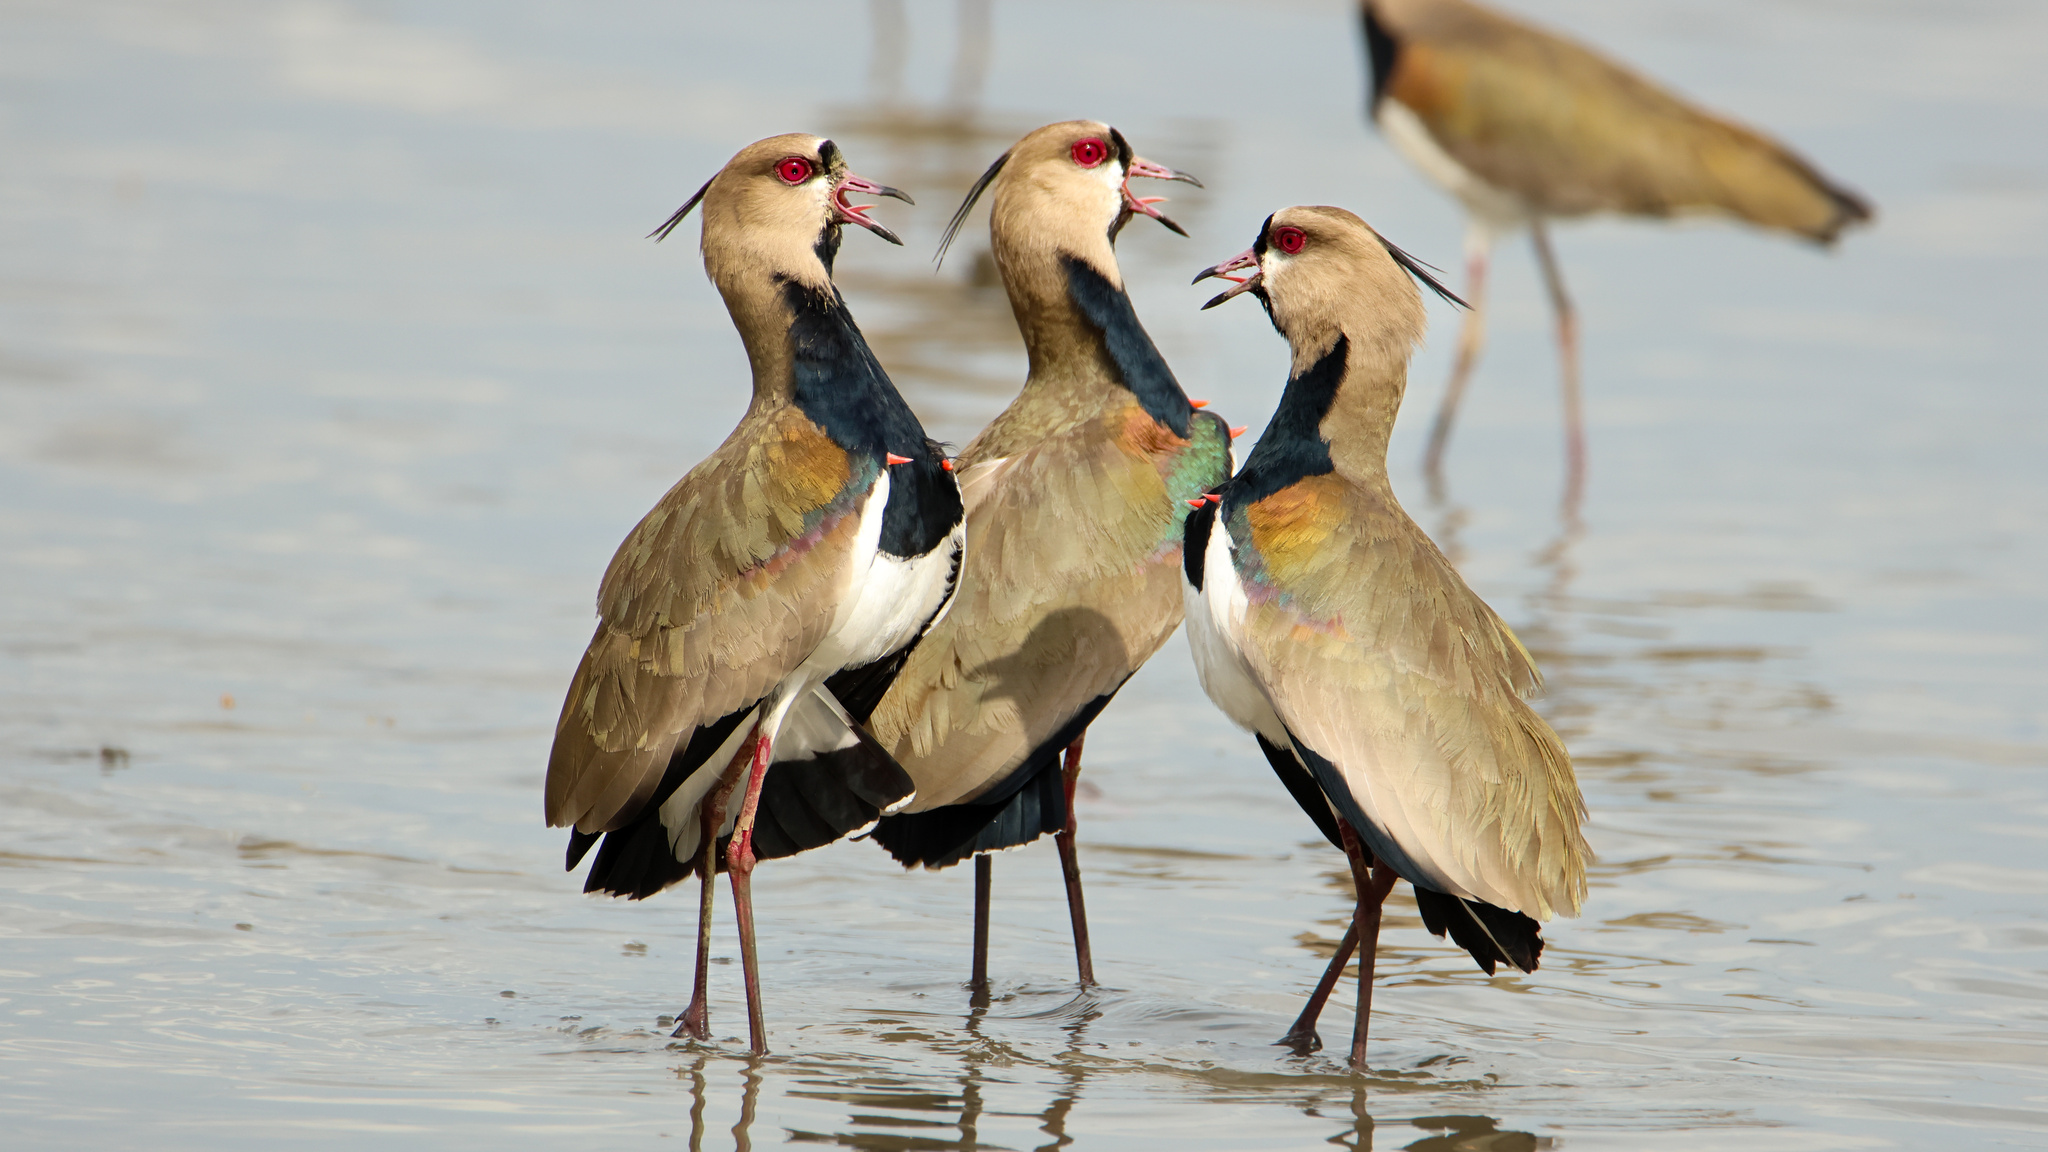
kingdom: Animalia
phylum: Chordata
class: Aves
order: Charadriiformes
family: Charadriidae
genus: Vanellus
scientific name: Vanellus chilensis
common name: Southern lapwing
